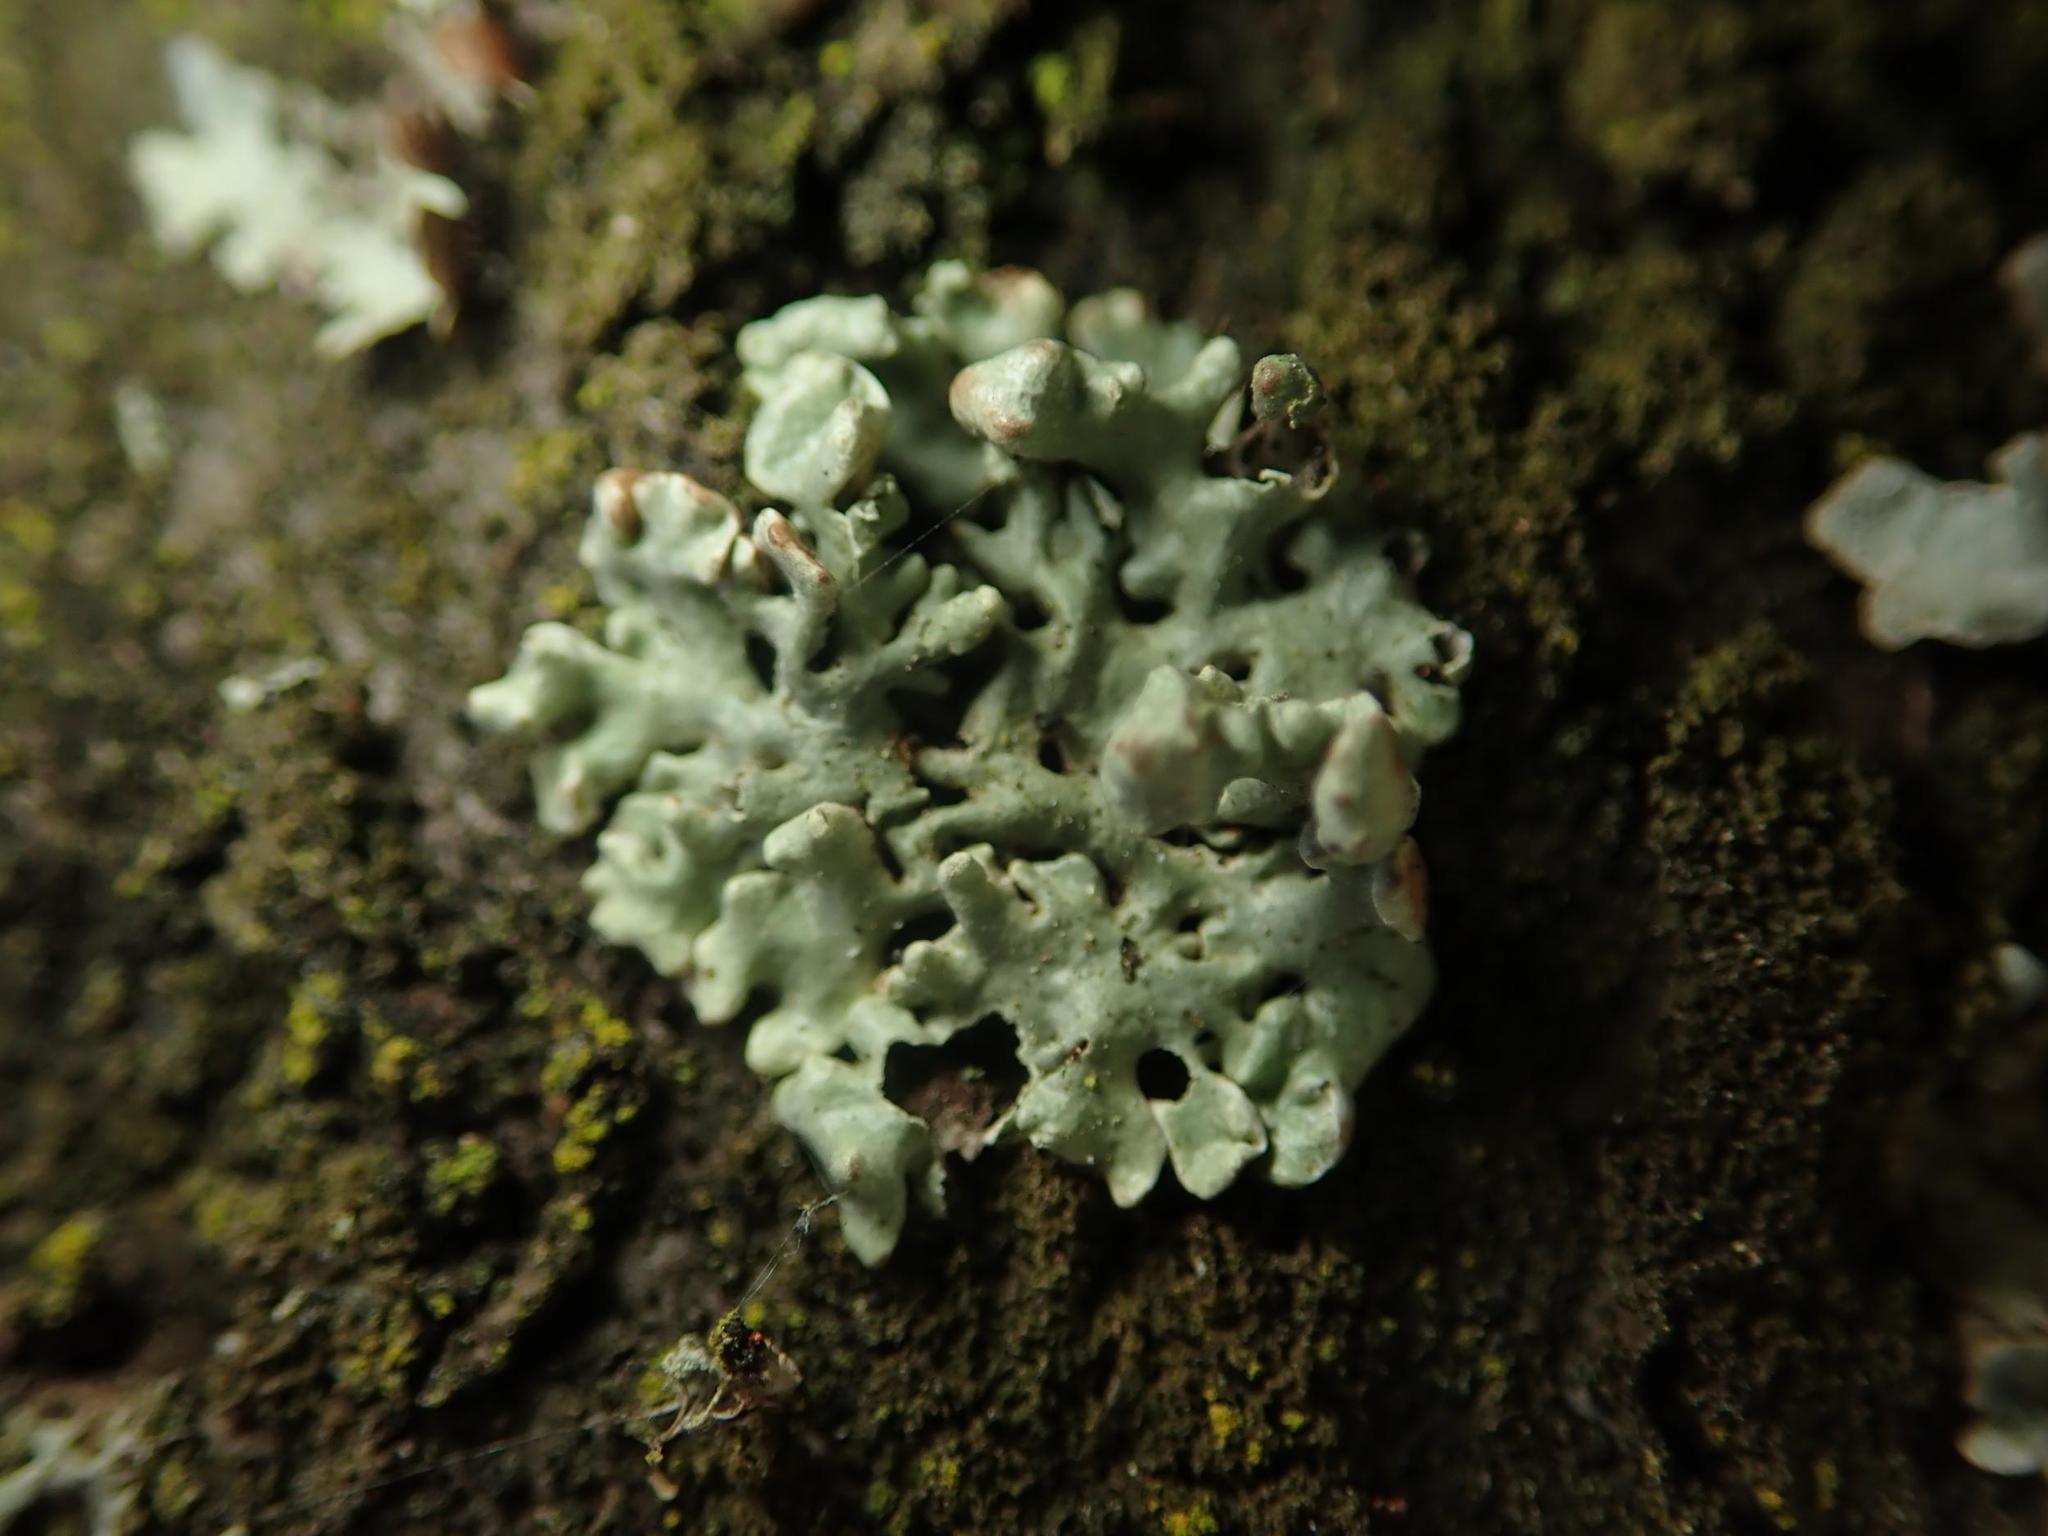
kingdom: Fungi
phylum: Ascomycota
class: Lecanoromycetes
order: Lecanorales
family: Parmeliaceae
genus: Hypogymnia
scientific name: Hypogymnia physodes
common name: Dark crottle
